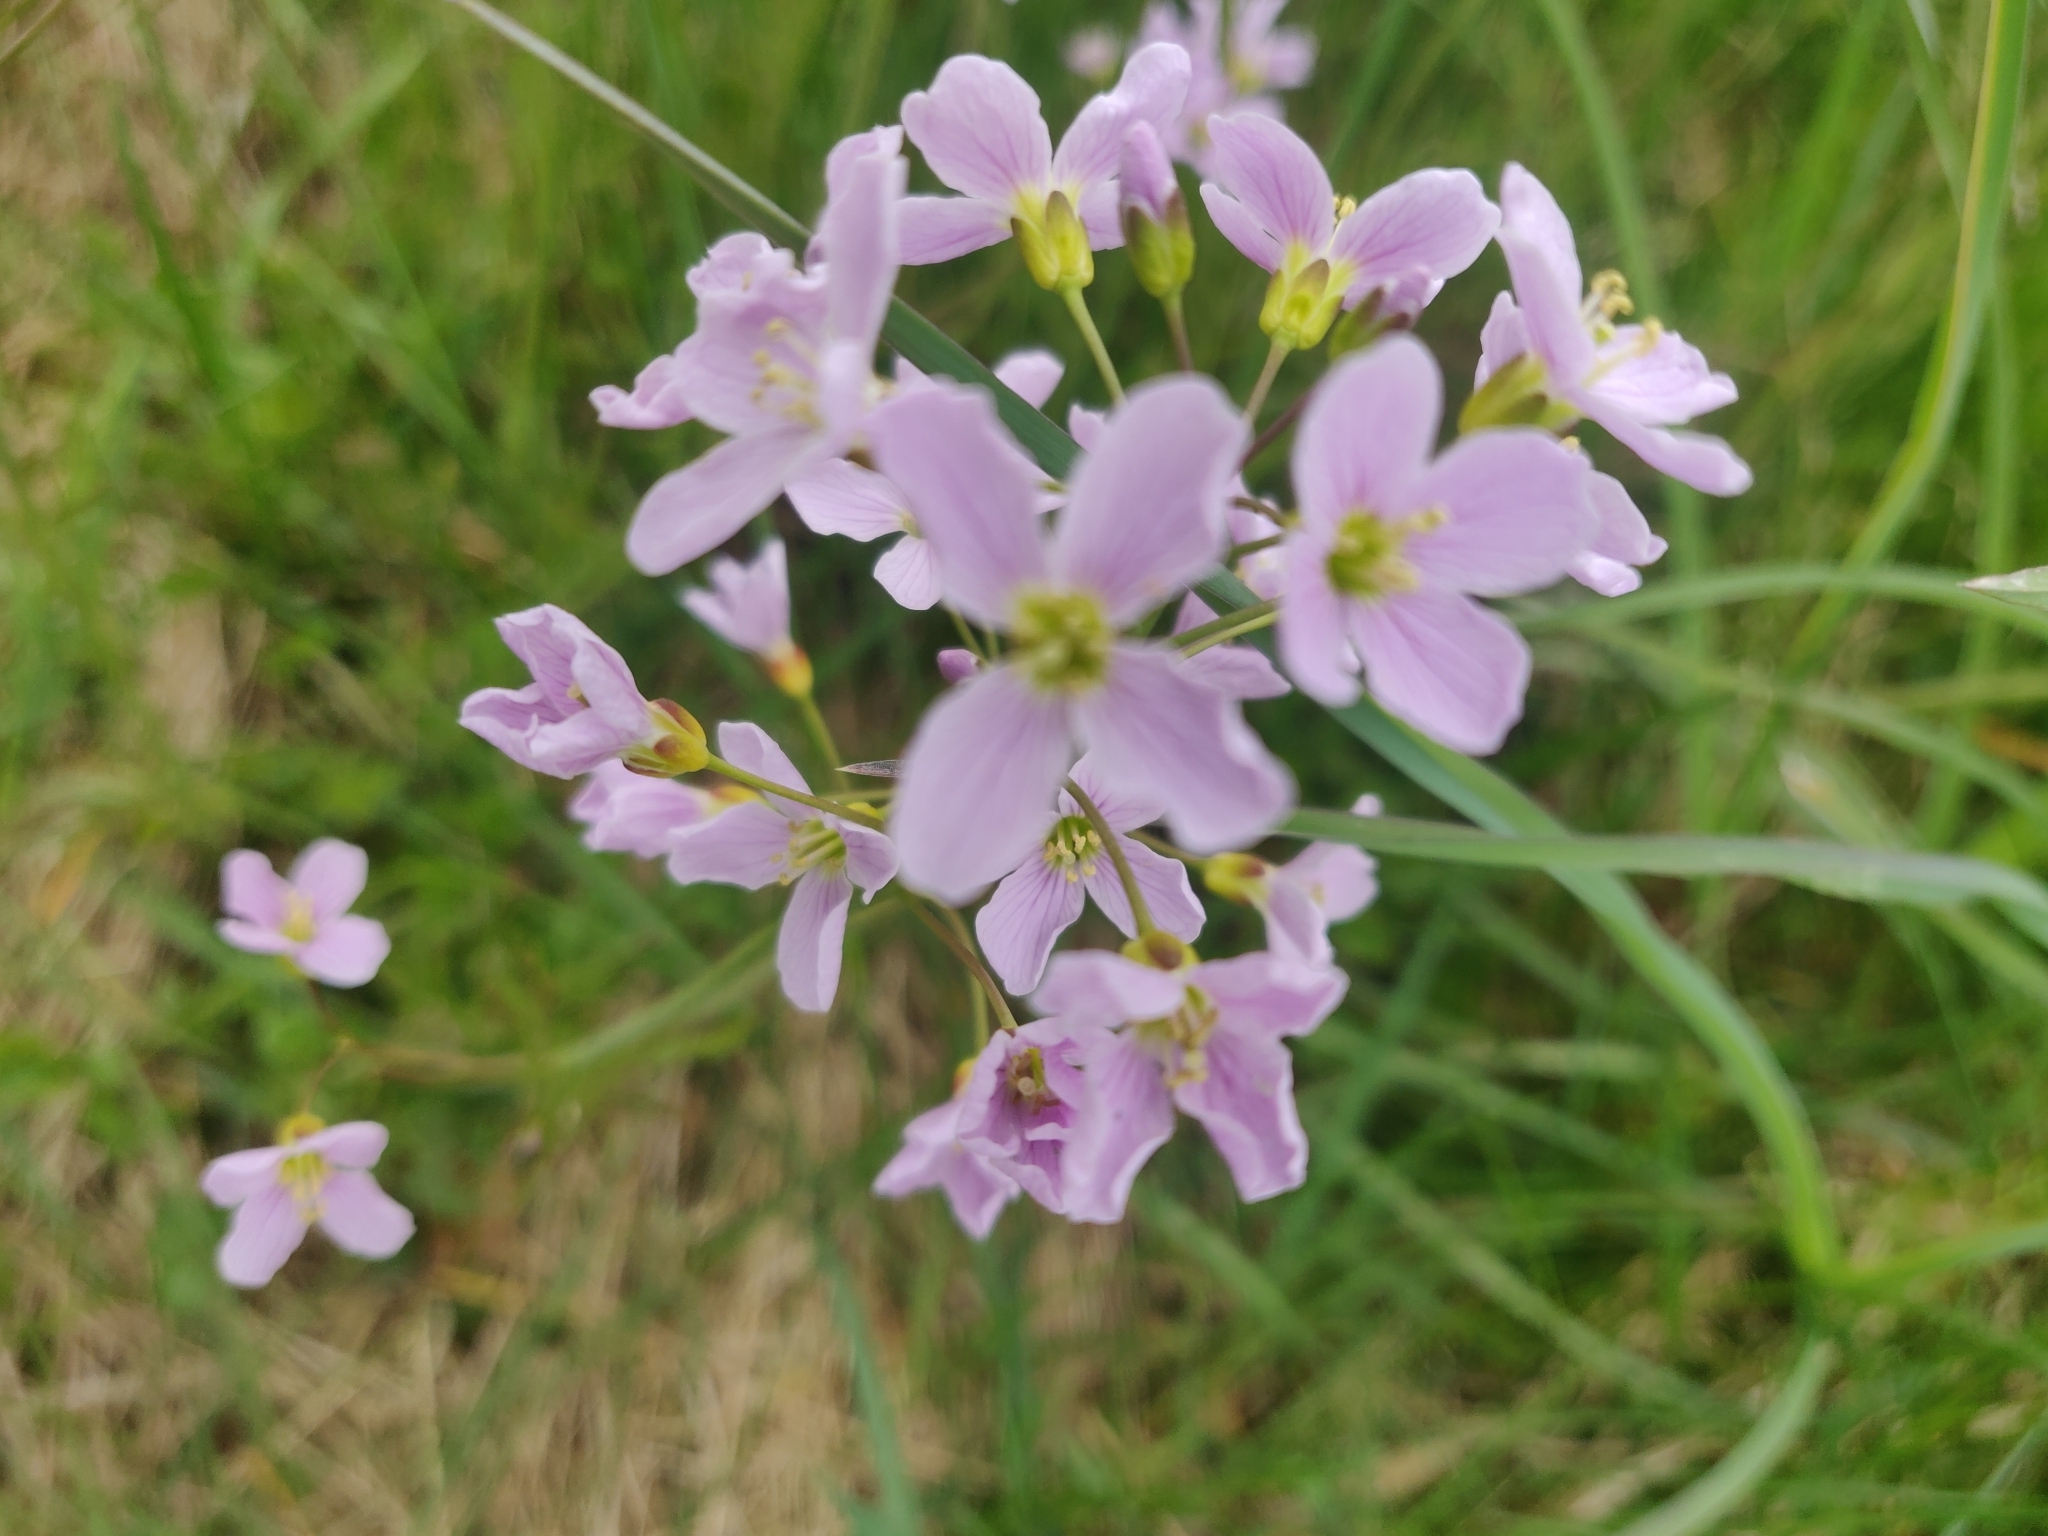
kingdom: Plantae
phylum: Tracheophyta
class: Magnoliopsida
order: Brassicales
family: Brassicaceae
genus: Cardamine
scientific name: Cardamine pratensis
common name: Cuckoo flower
